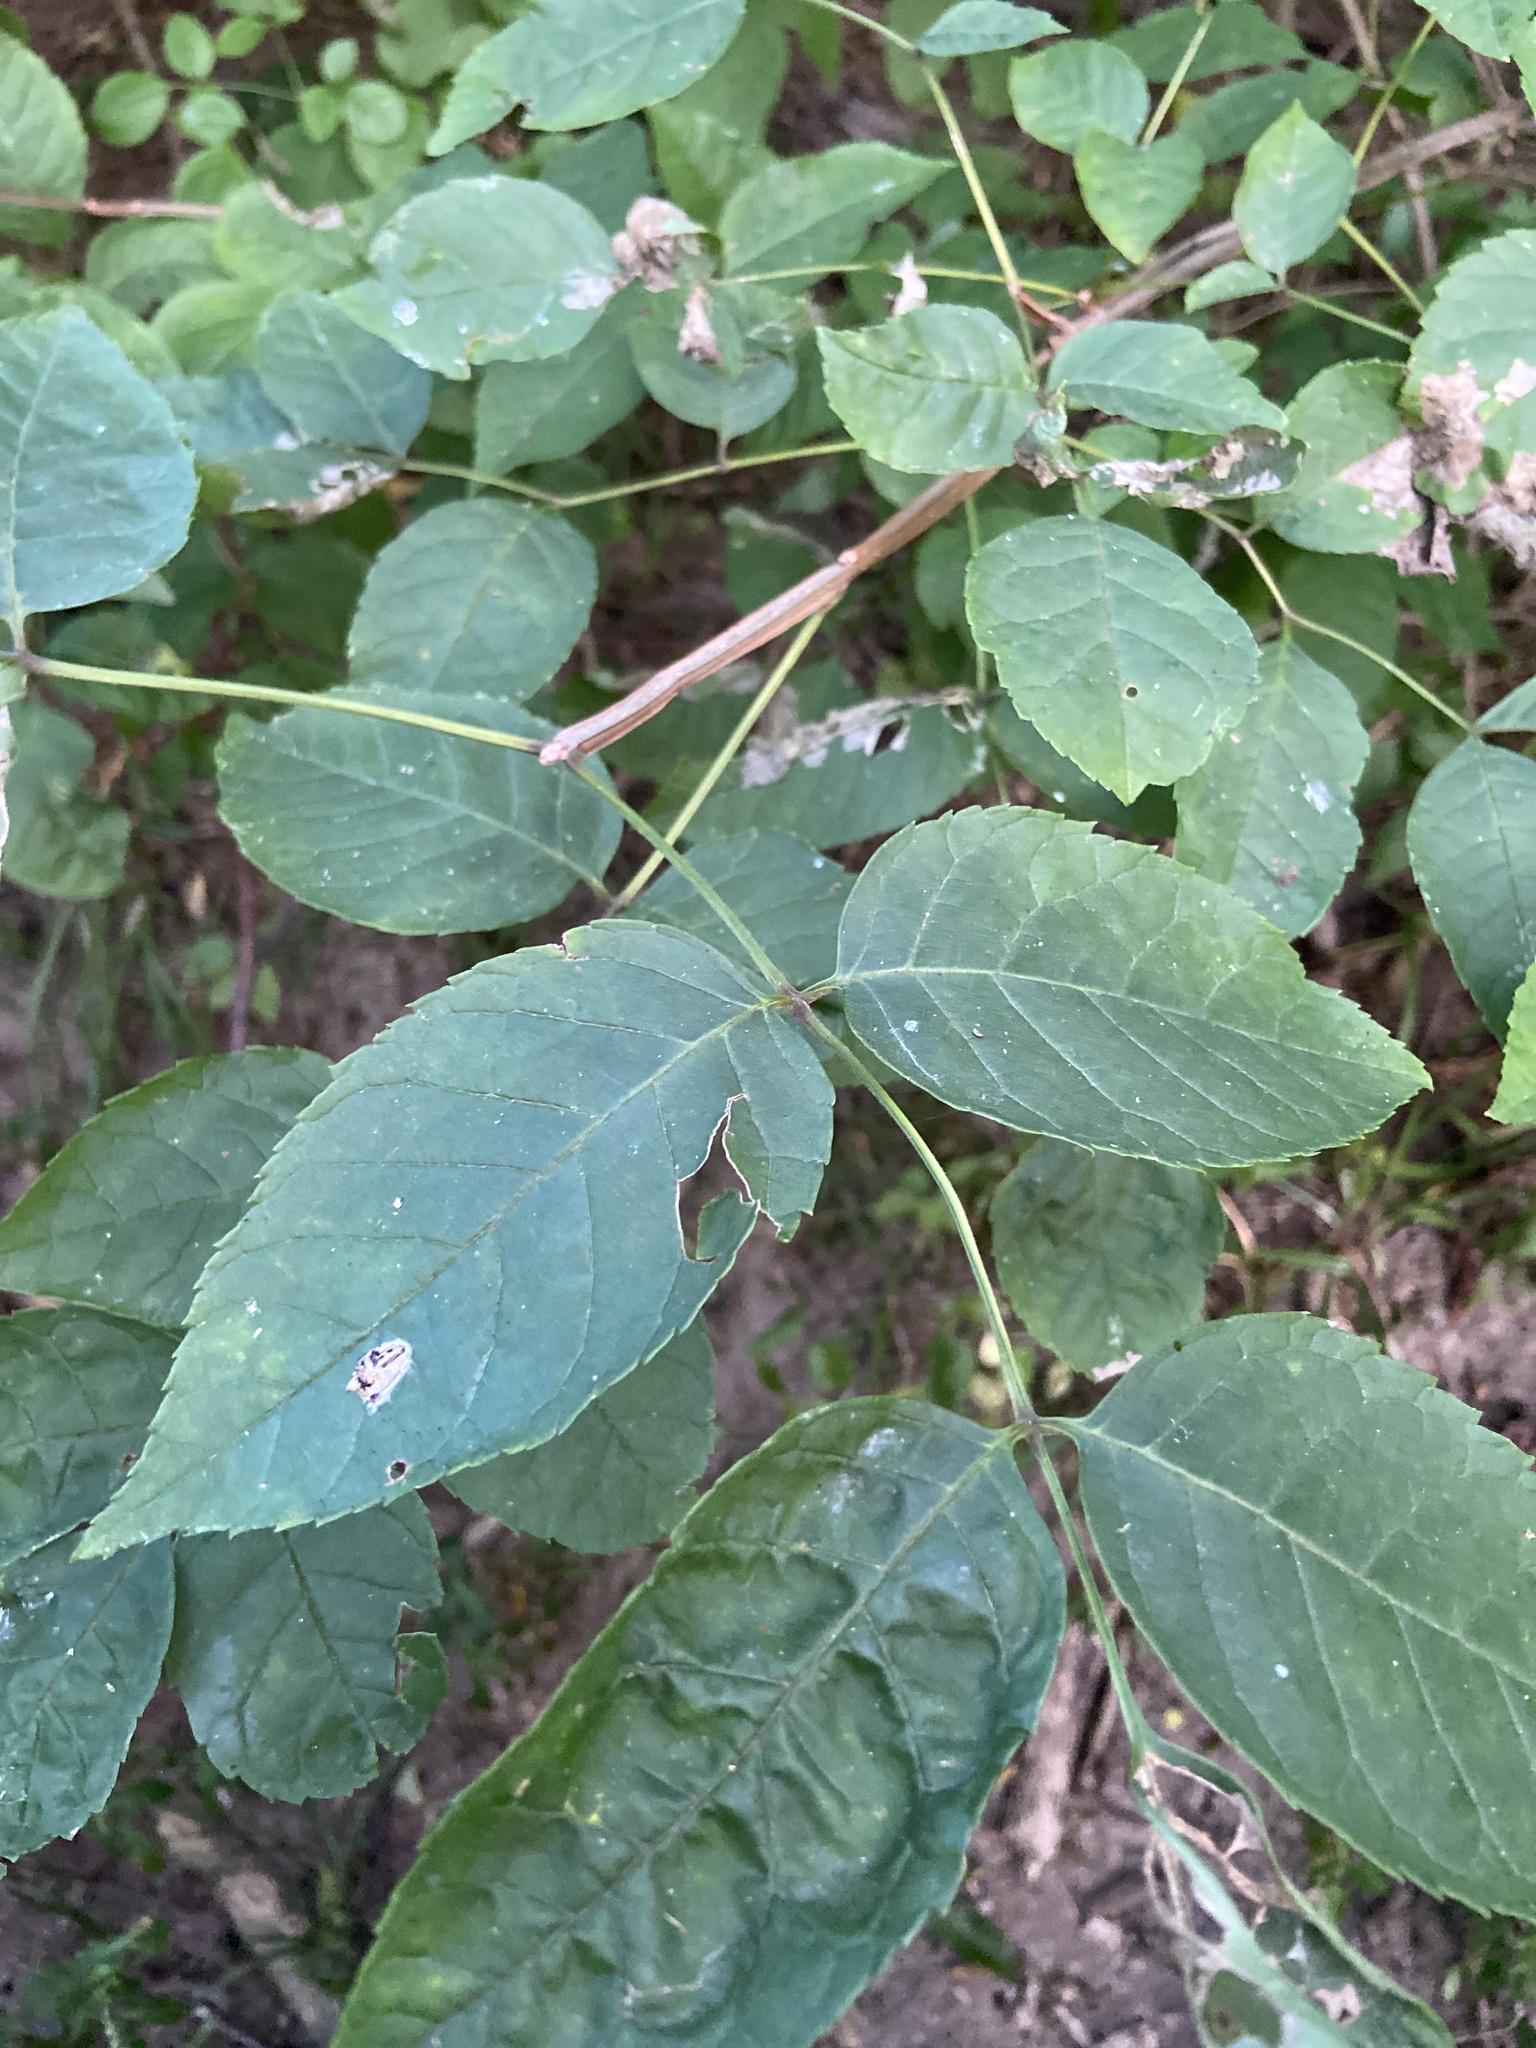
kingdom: Plantae
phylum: Tracheophyta
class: Magnoliopsida
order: Lamiales
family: Oleaceae
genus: Fraxinus
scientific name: Fraxinus quadrangulata
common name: Blue ash
